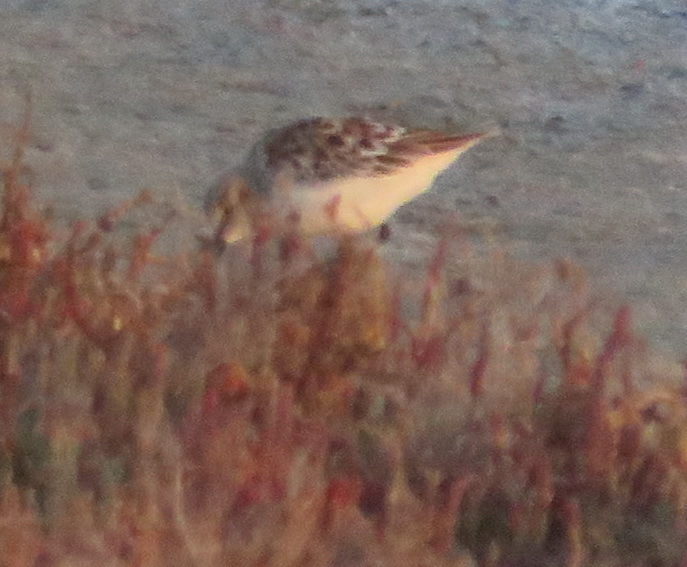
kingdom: Animalia
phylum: Chordata
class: Aves
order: Charadriiformes
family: Scolopacidae
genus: Calidris
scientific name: Calidris minuta
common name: Little stint
